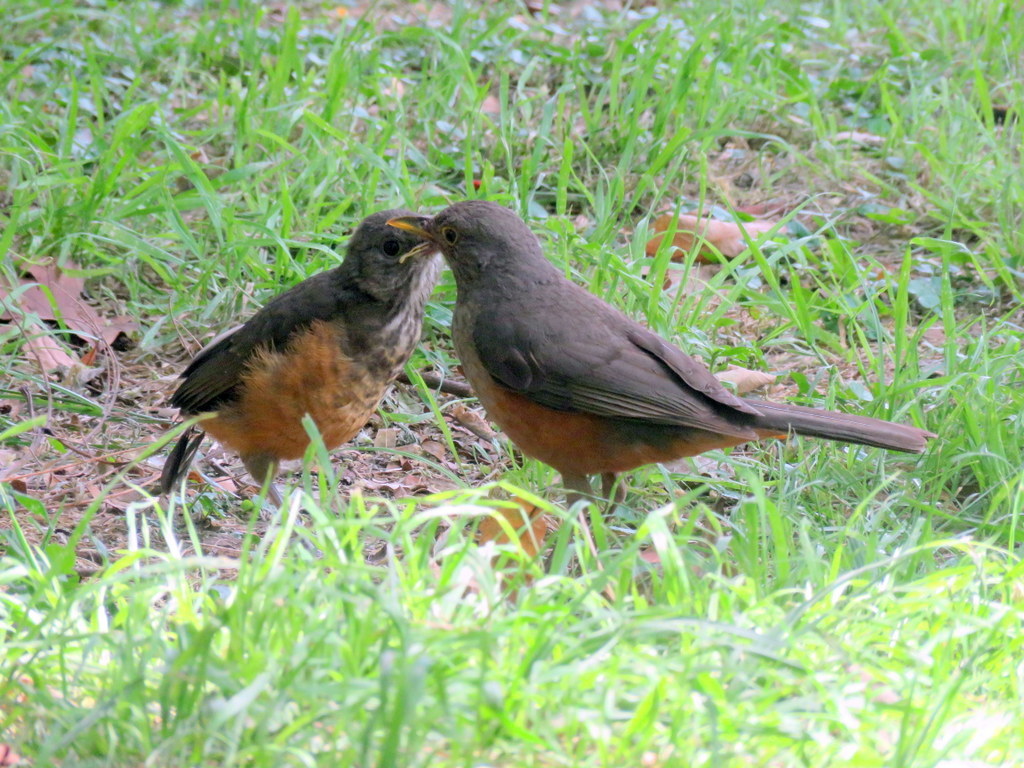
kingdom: Animalia
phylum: Chordata
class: Aves
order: Passeriformes
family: Turdidae
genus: Turdus
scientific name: Turdus rufiventris
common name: Rufous-bellied thrush
